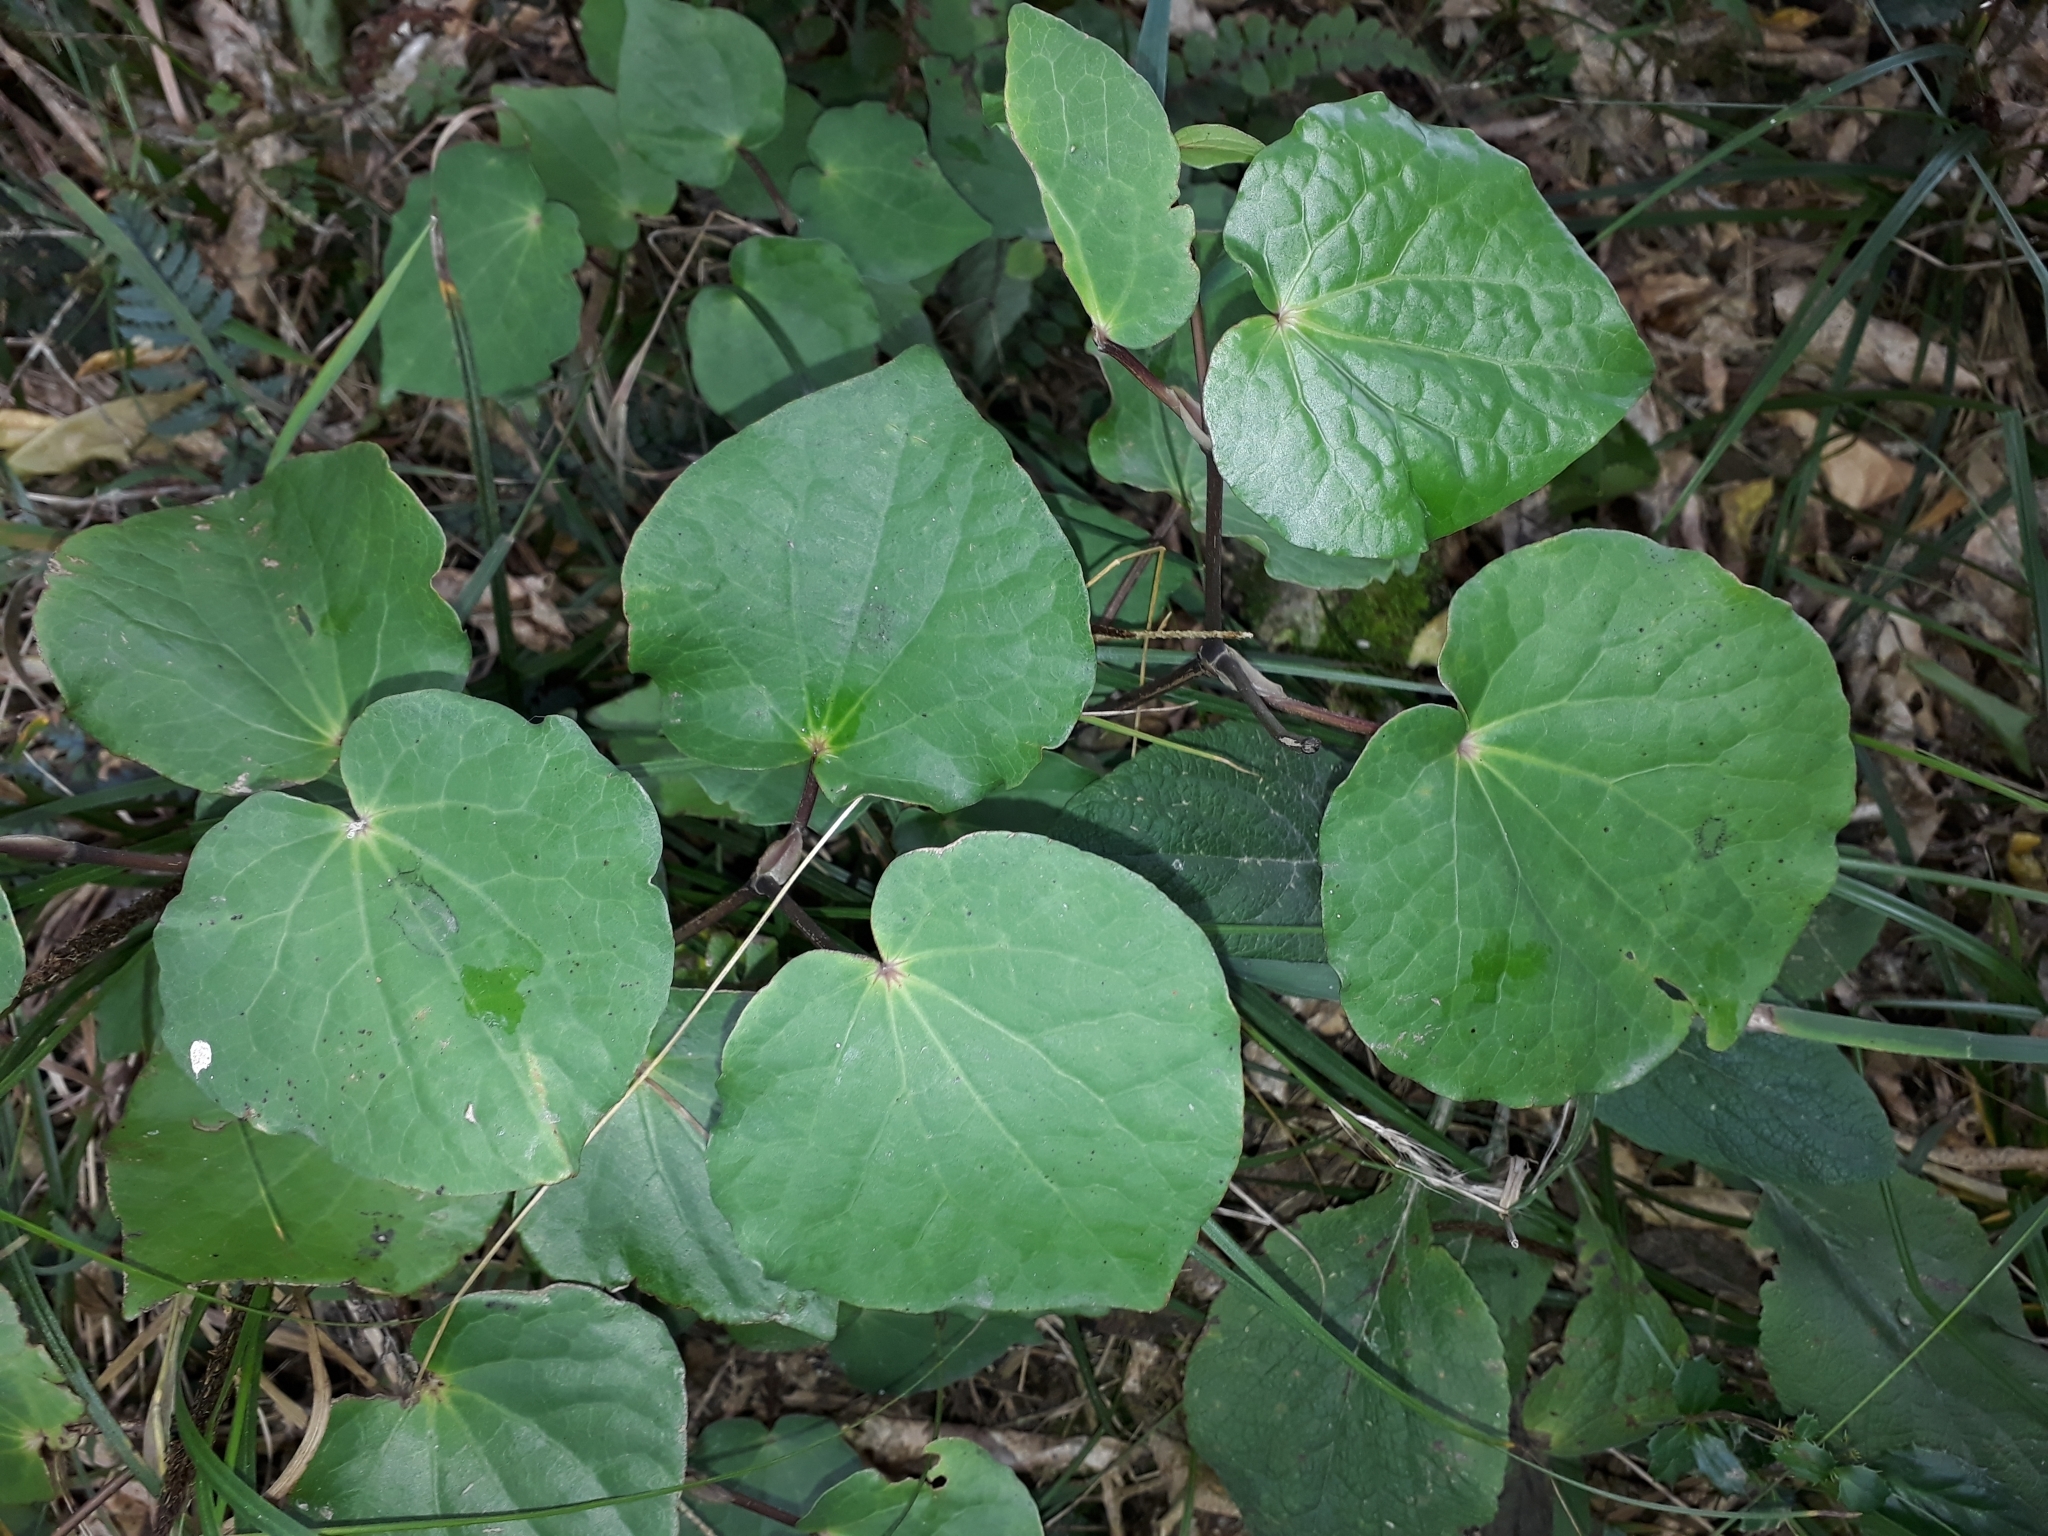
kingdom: Plantae
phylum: Tracheophyta
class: Magnoliopsida
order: Piperales
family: Piperaceae
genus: Macropiper
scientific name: Macropiper excelsum
